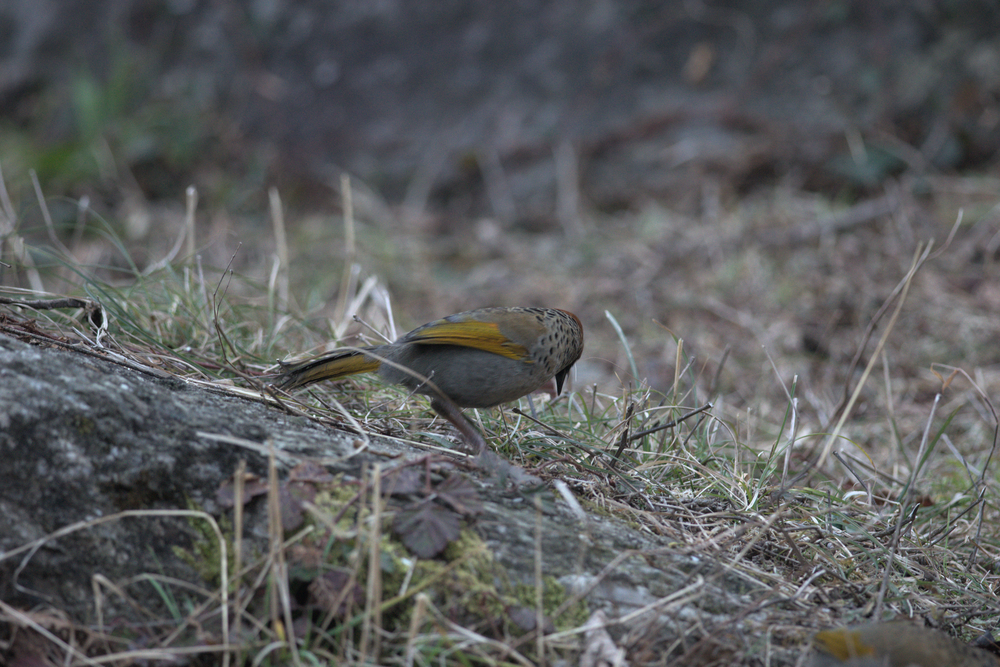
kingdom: Animalia
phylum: Chordata
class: Aves
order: Passeriformes
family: Leiothrichidae
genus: Trochalopteron
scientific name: Trochalopteron erythrocephalum
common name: Chestnut-crowned laughingthrush
